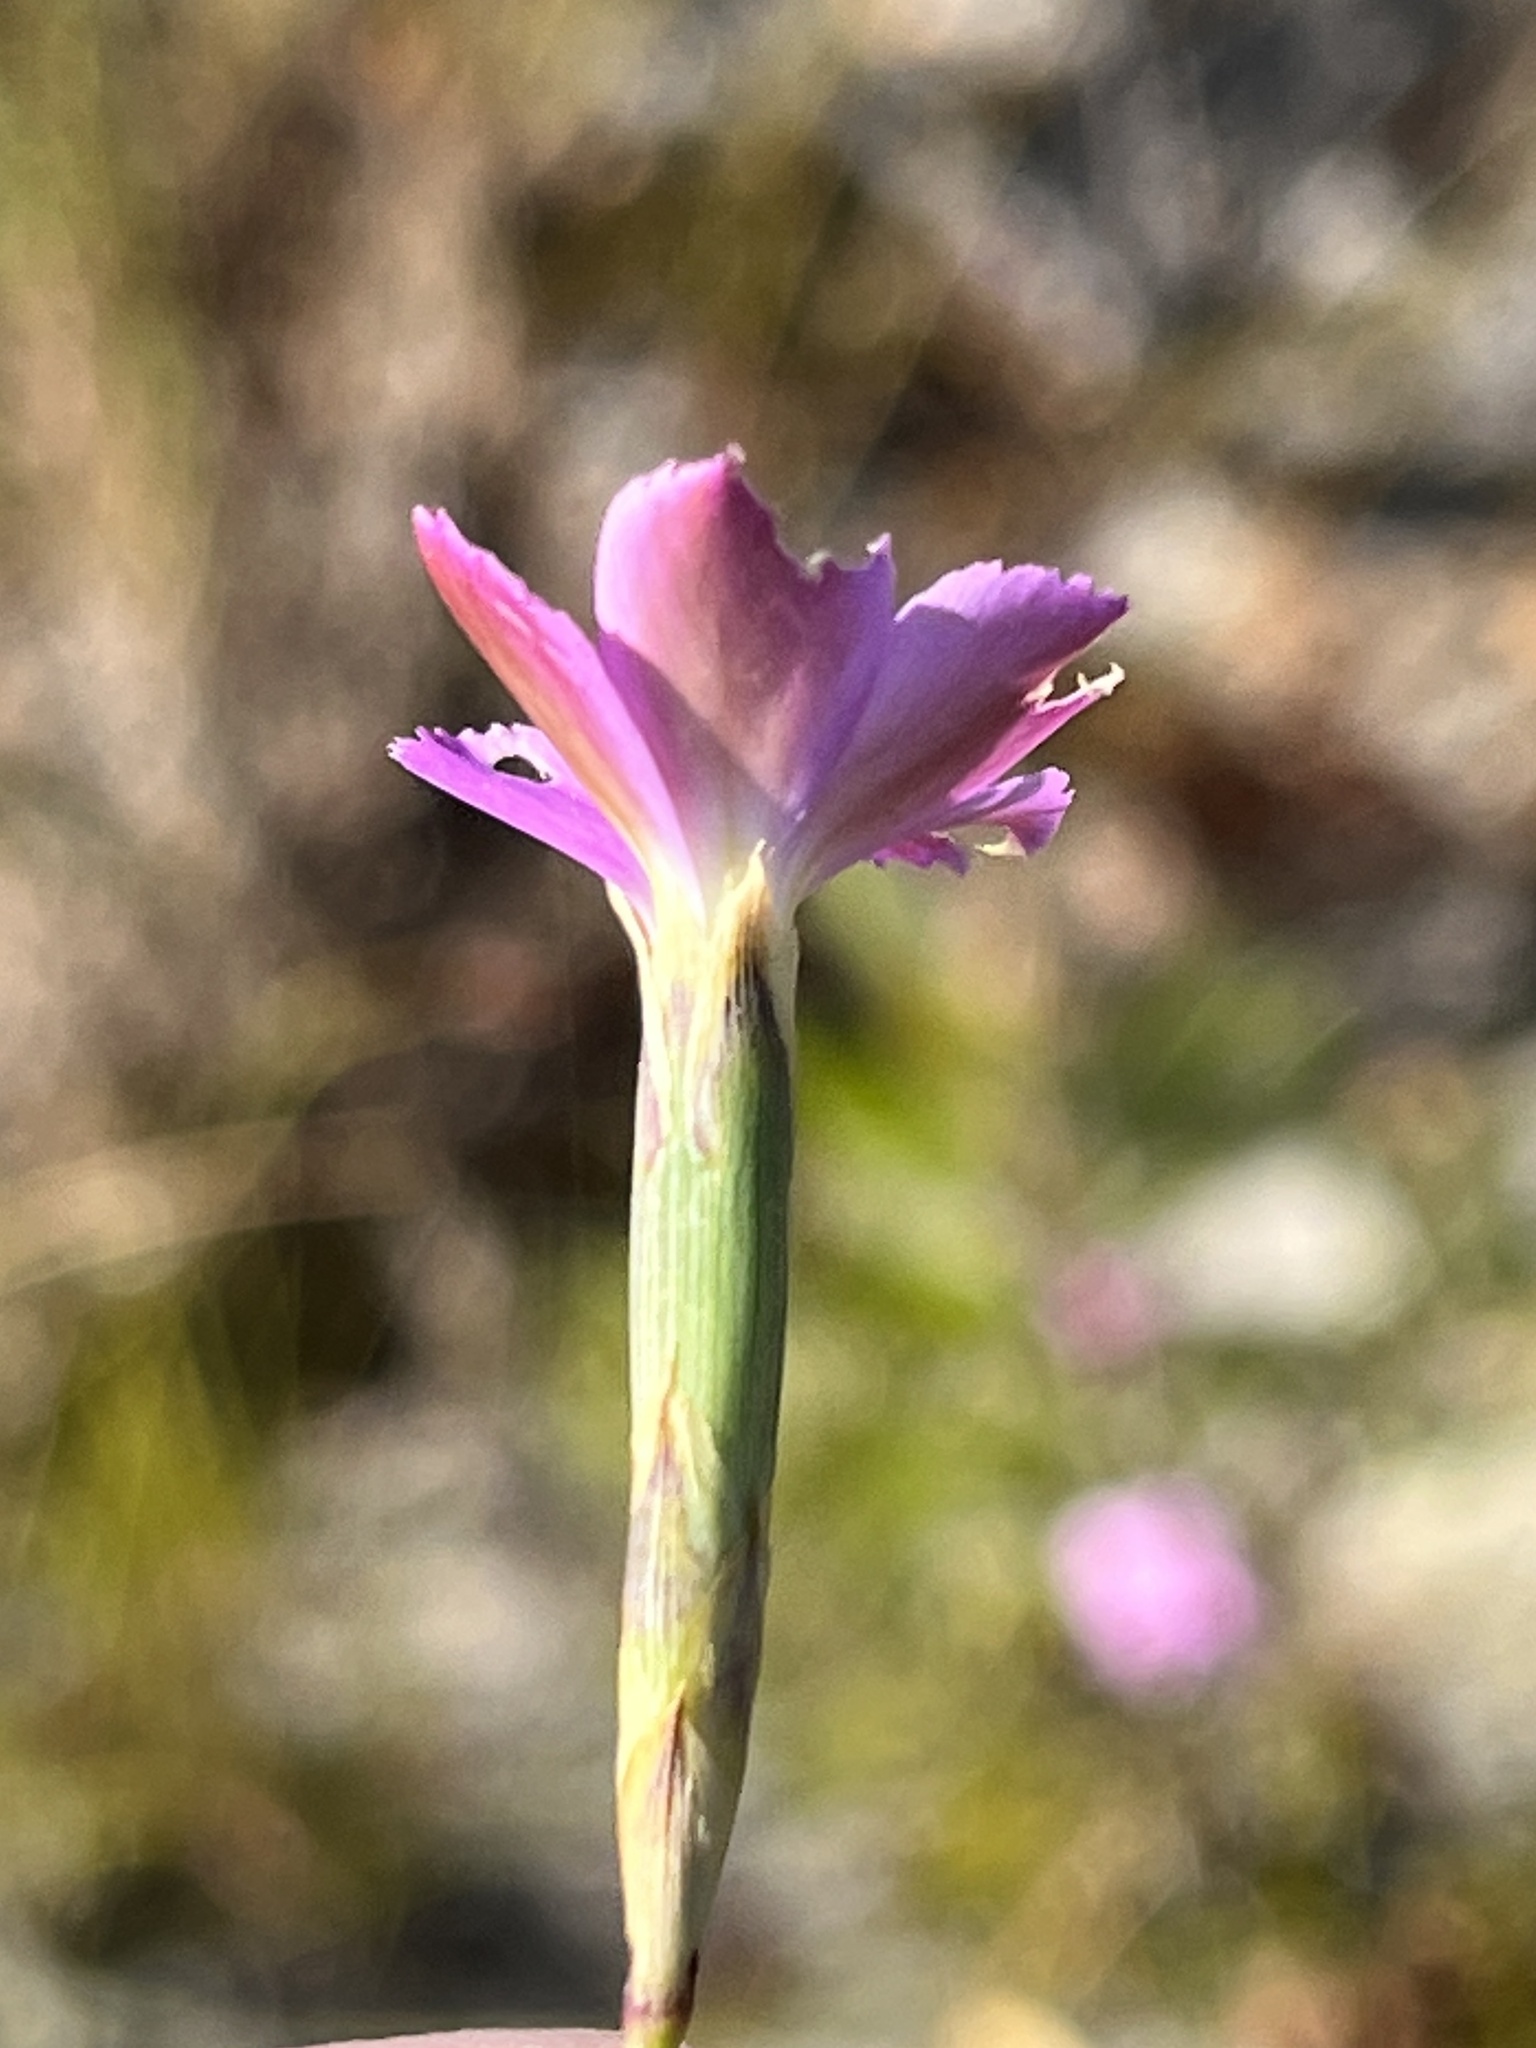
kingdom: Plantae
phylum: Tracheophyta
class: Magnoliopsida
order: Caryophyllales
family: Caryophyllaceae
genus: Dianthus
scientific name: Dianthus albens
